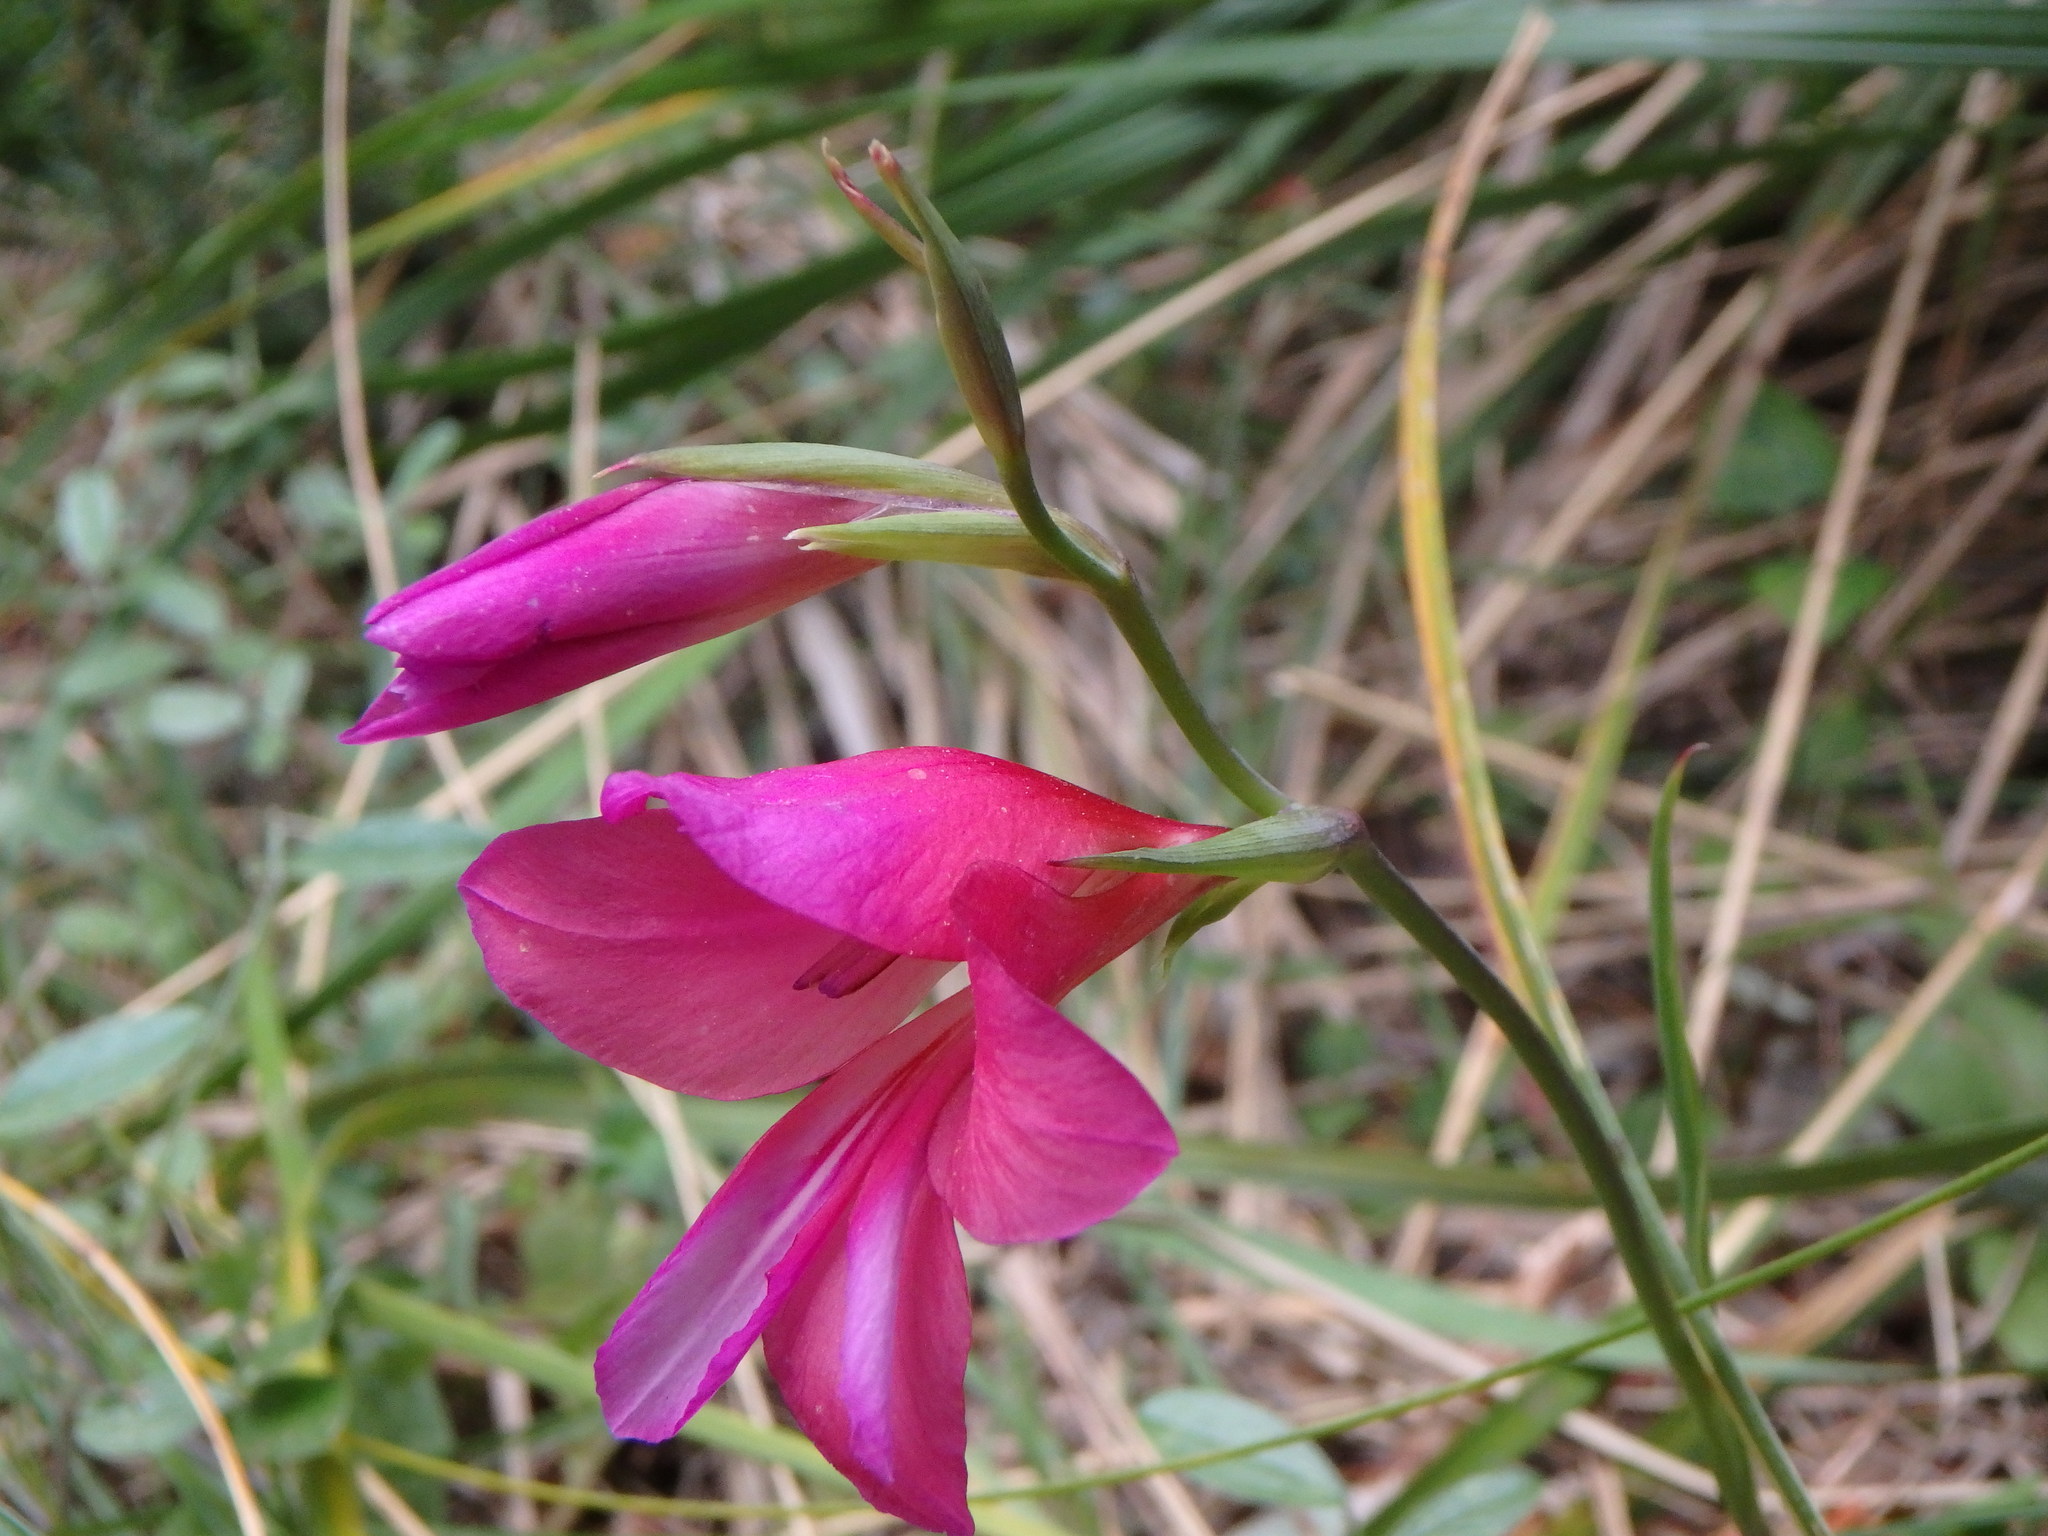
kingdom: Plantae
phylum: Tracheophyta
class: Liliopsida
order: Asparagales
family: Iridaceae
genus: Gladiolus
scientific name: Gladiolus communis
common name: Eastern gladiolus
